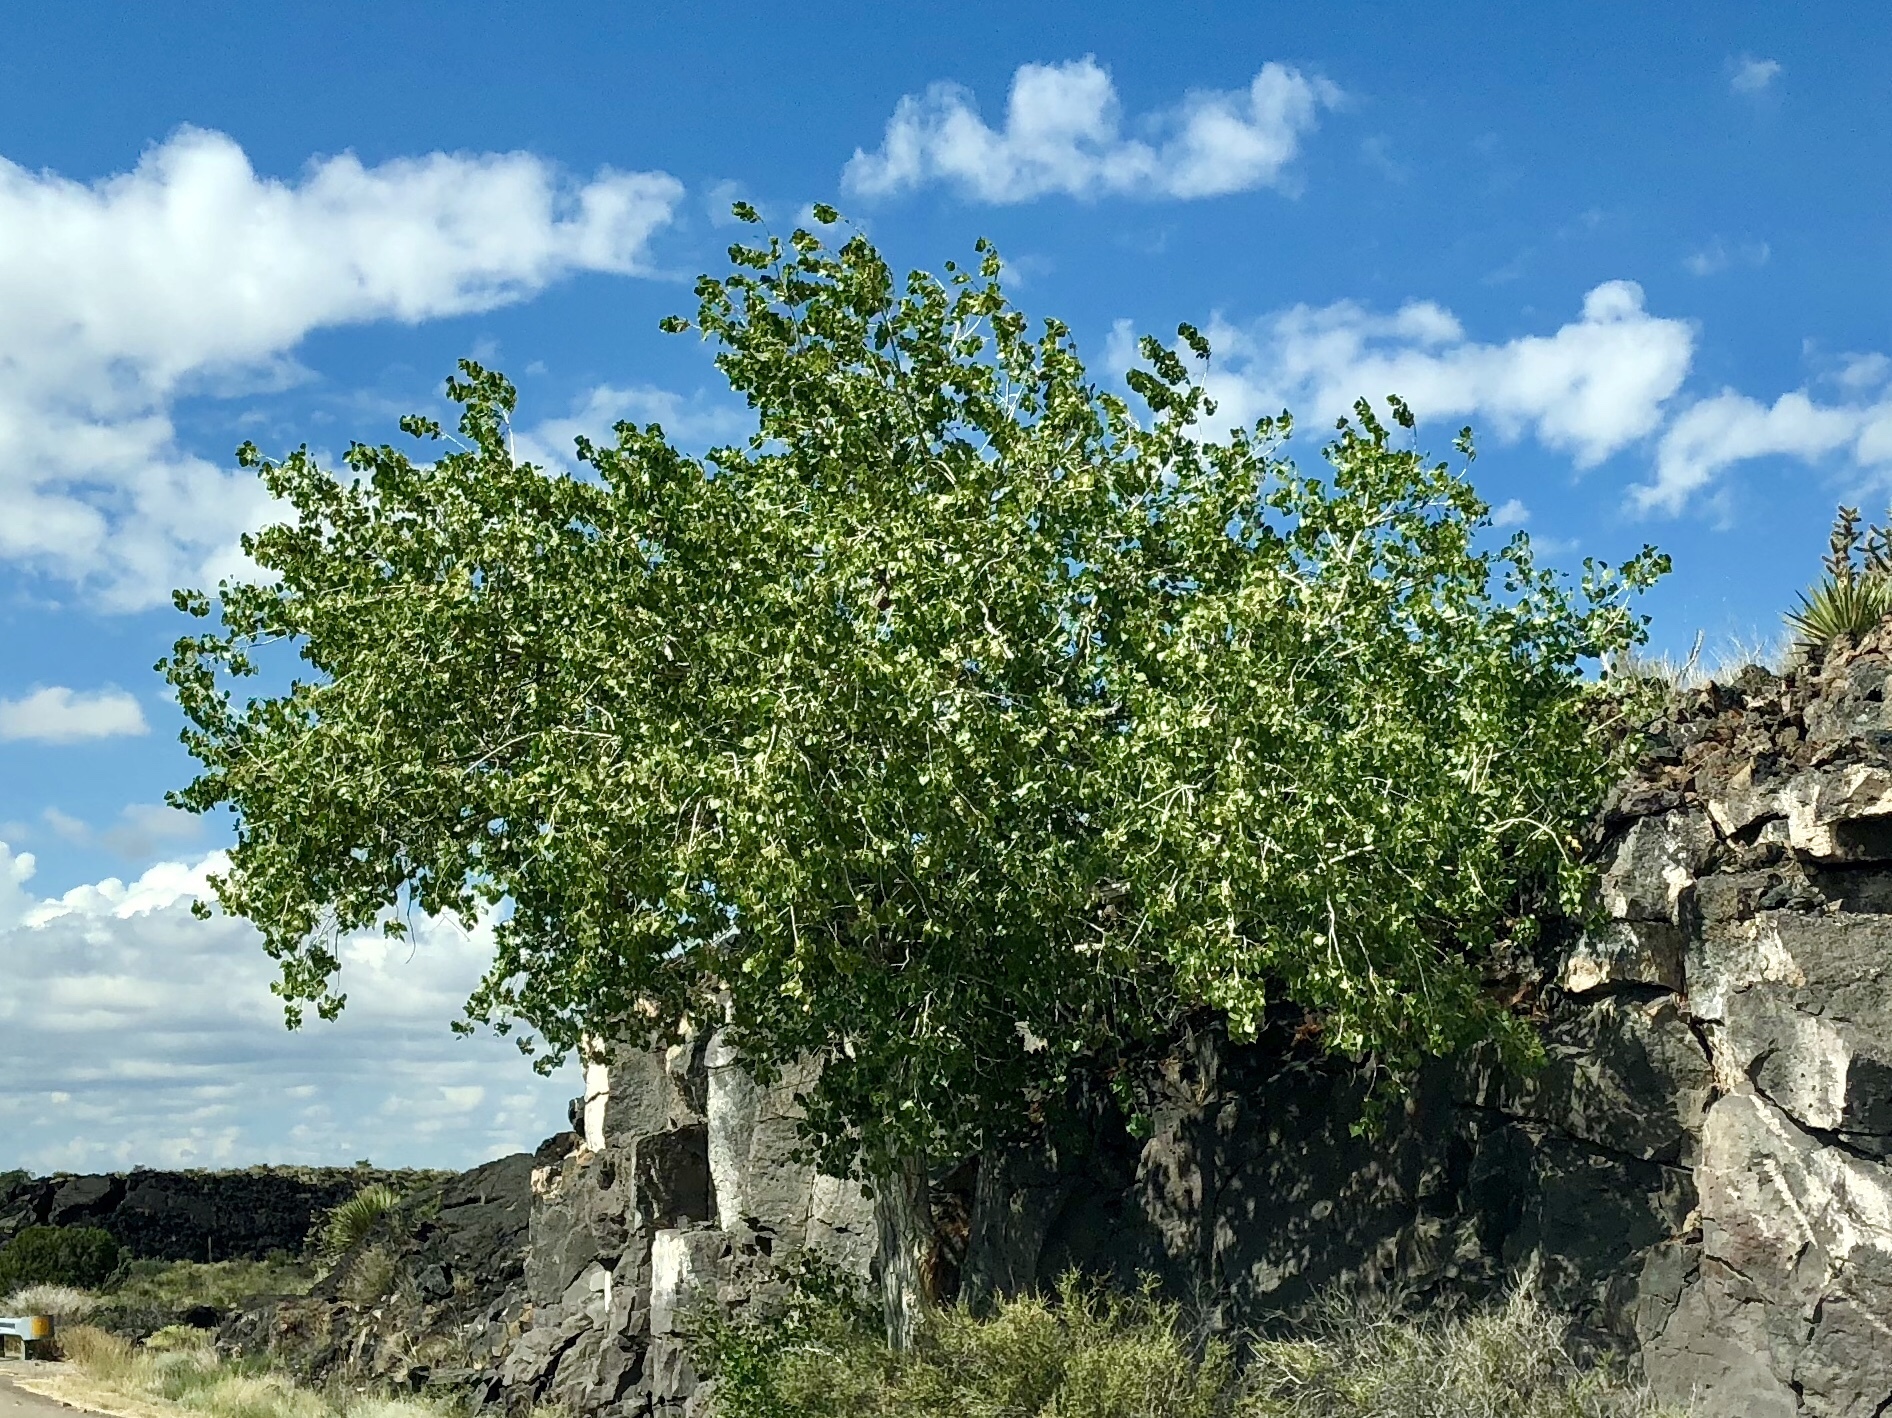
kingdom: Plantae
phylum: Tracheophyta
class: Magnoliopsida
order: Malpighiales
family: Salicaceae
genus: Populus
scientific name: Populus fremontii
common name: Fremont's cottonwood
